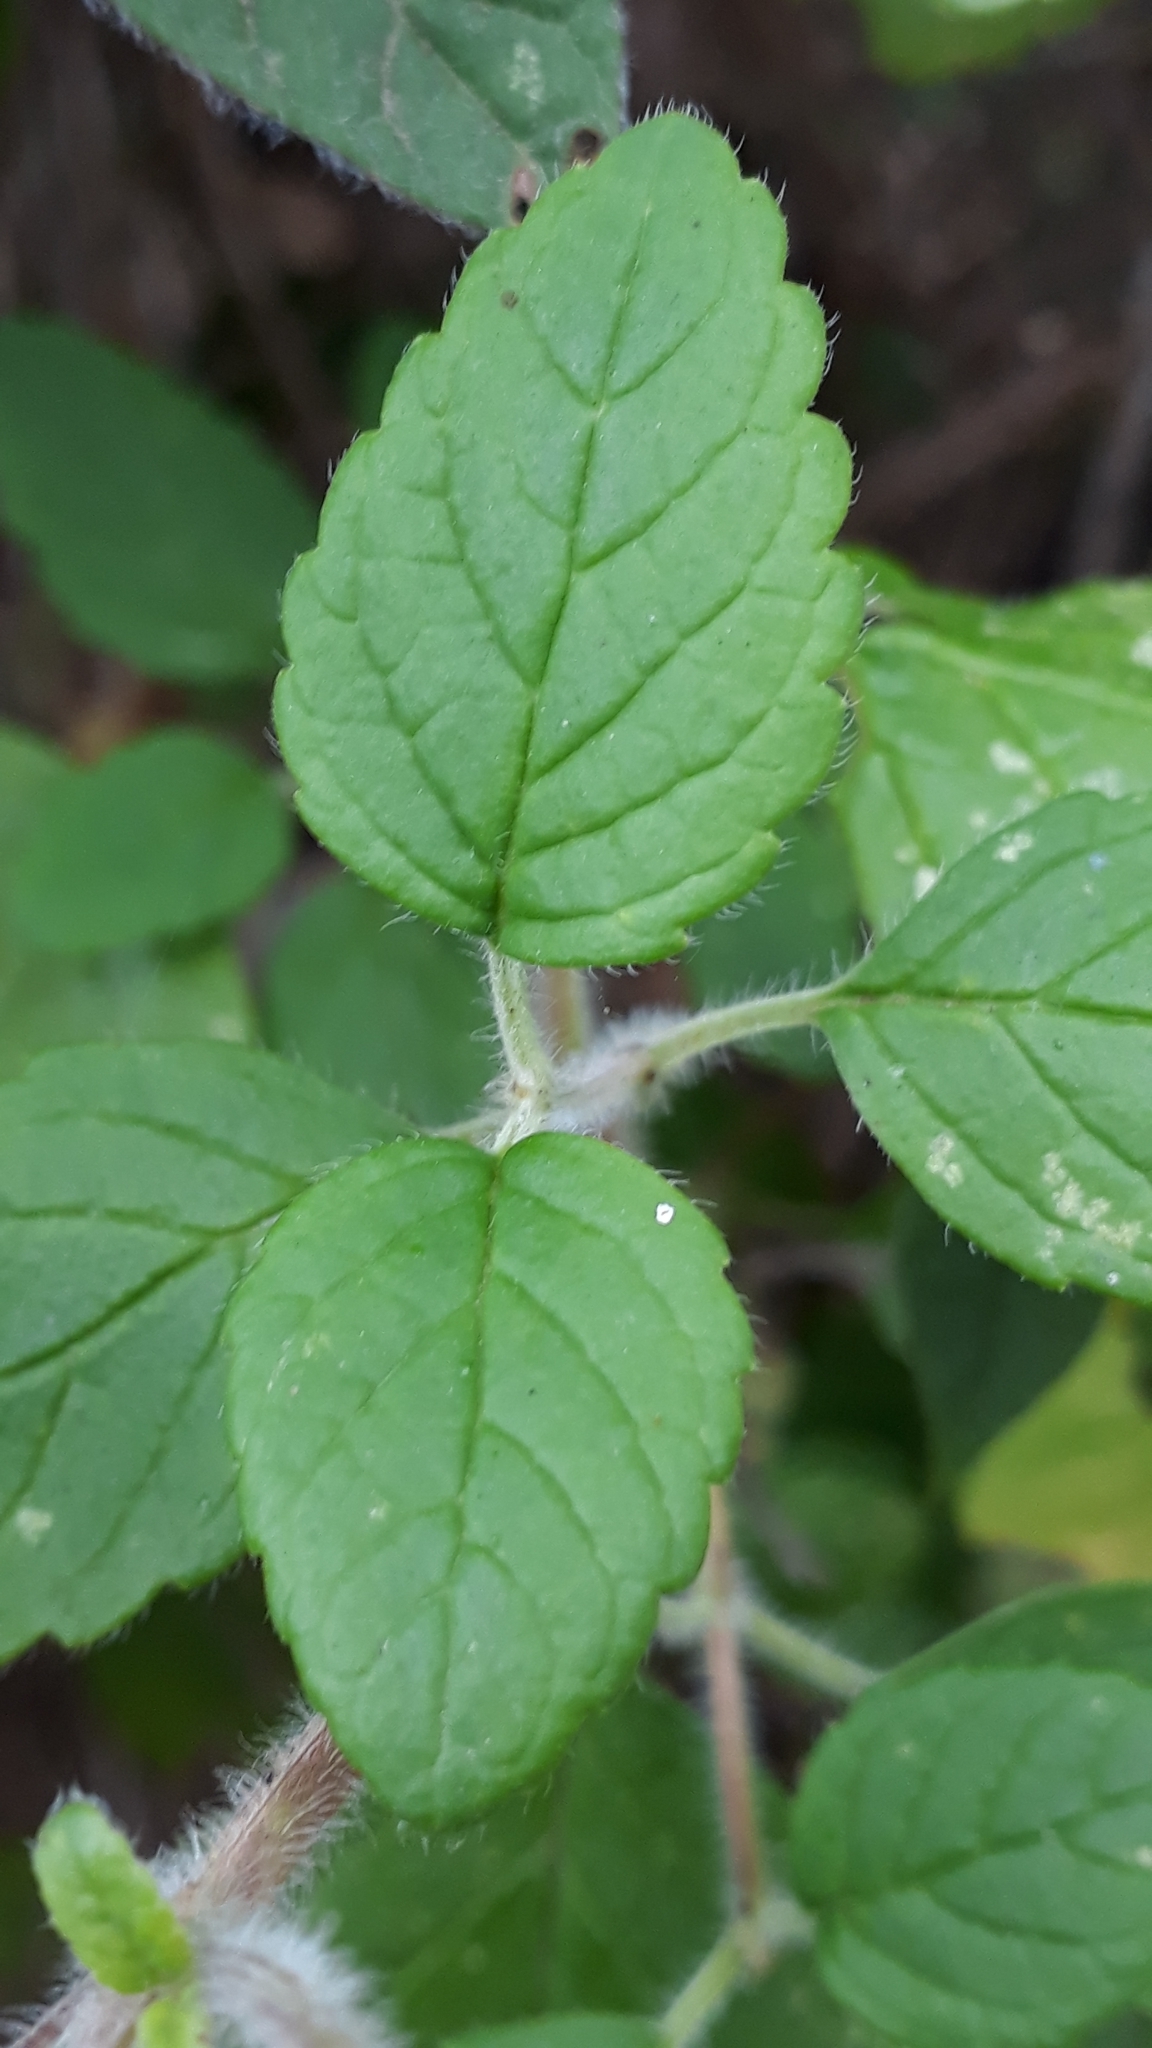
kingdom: Plantae
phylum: Tracheophyta
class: Magnoliopsida
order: Lamiales
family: Lamiaceae
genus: Bystropogon
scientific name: Bystropogon canariensis
